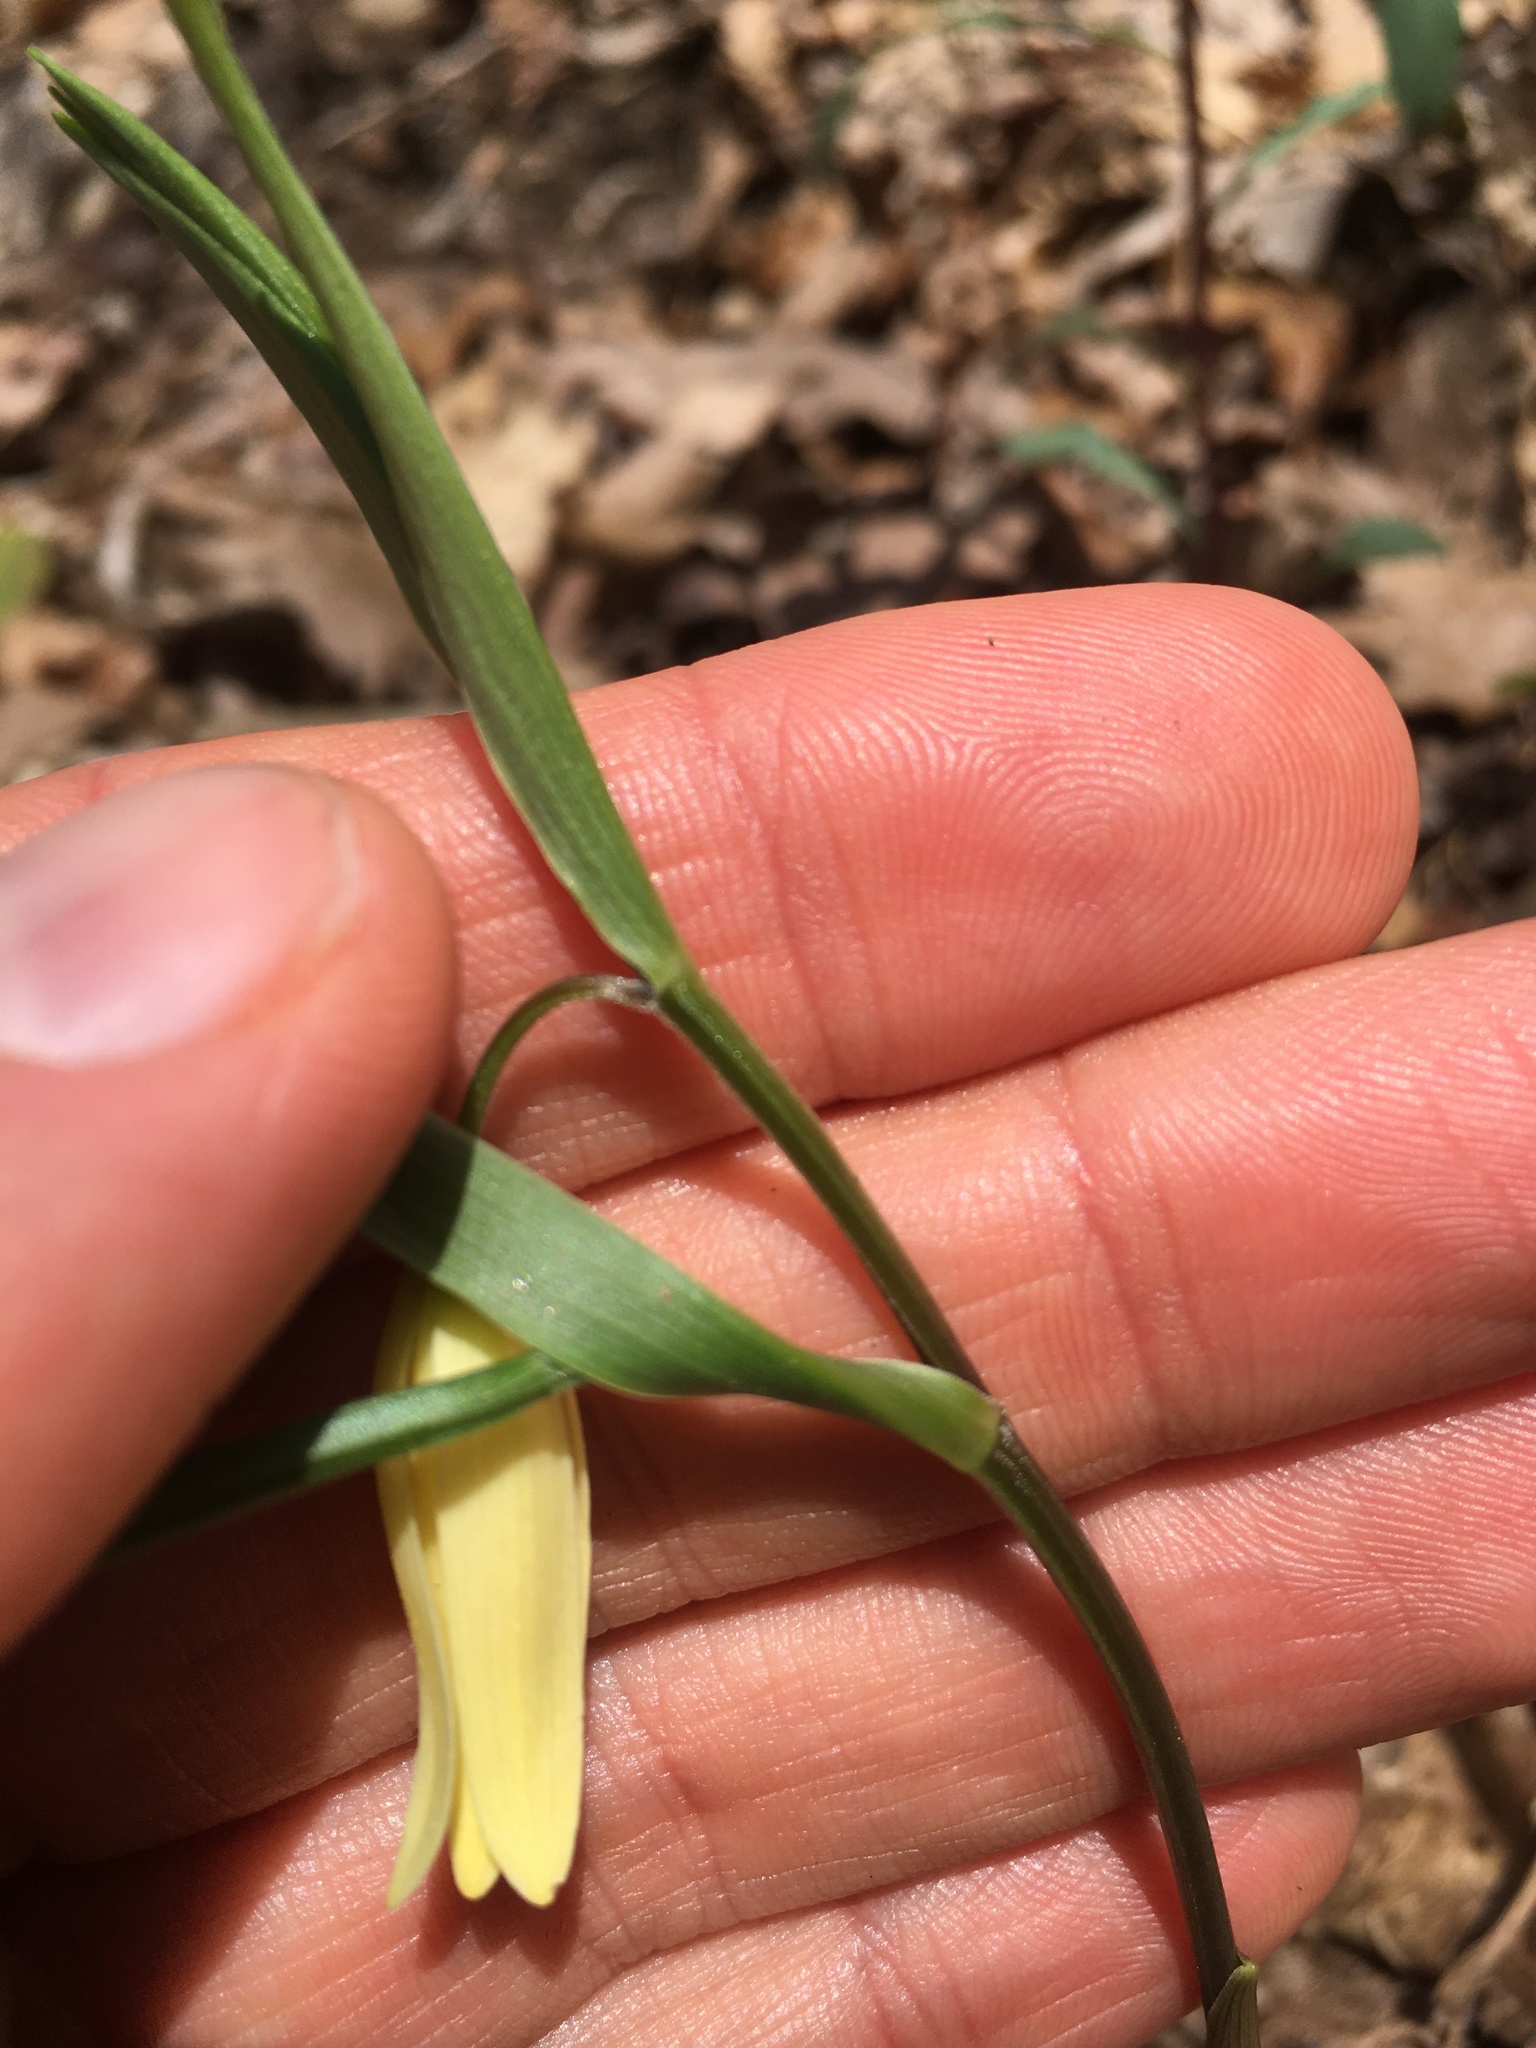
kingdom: Plantae
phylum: Tracheophyta
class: Liliopsida
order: Liliales
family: Colchicaceae
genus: Uvularia
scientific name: Uvularia puberula
